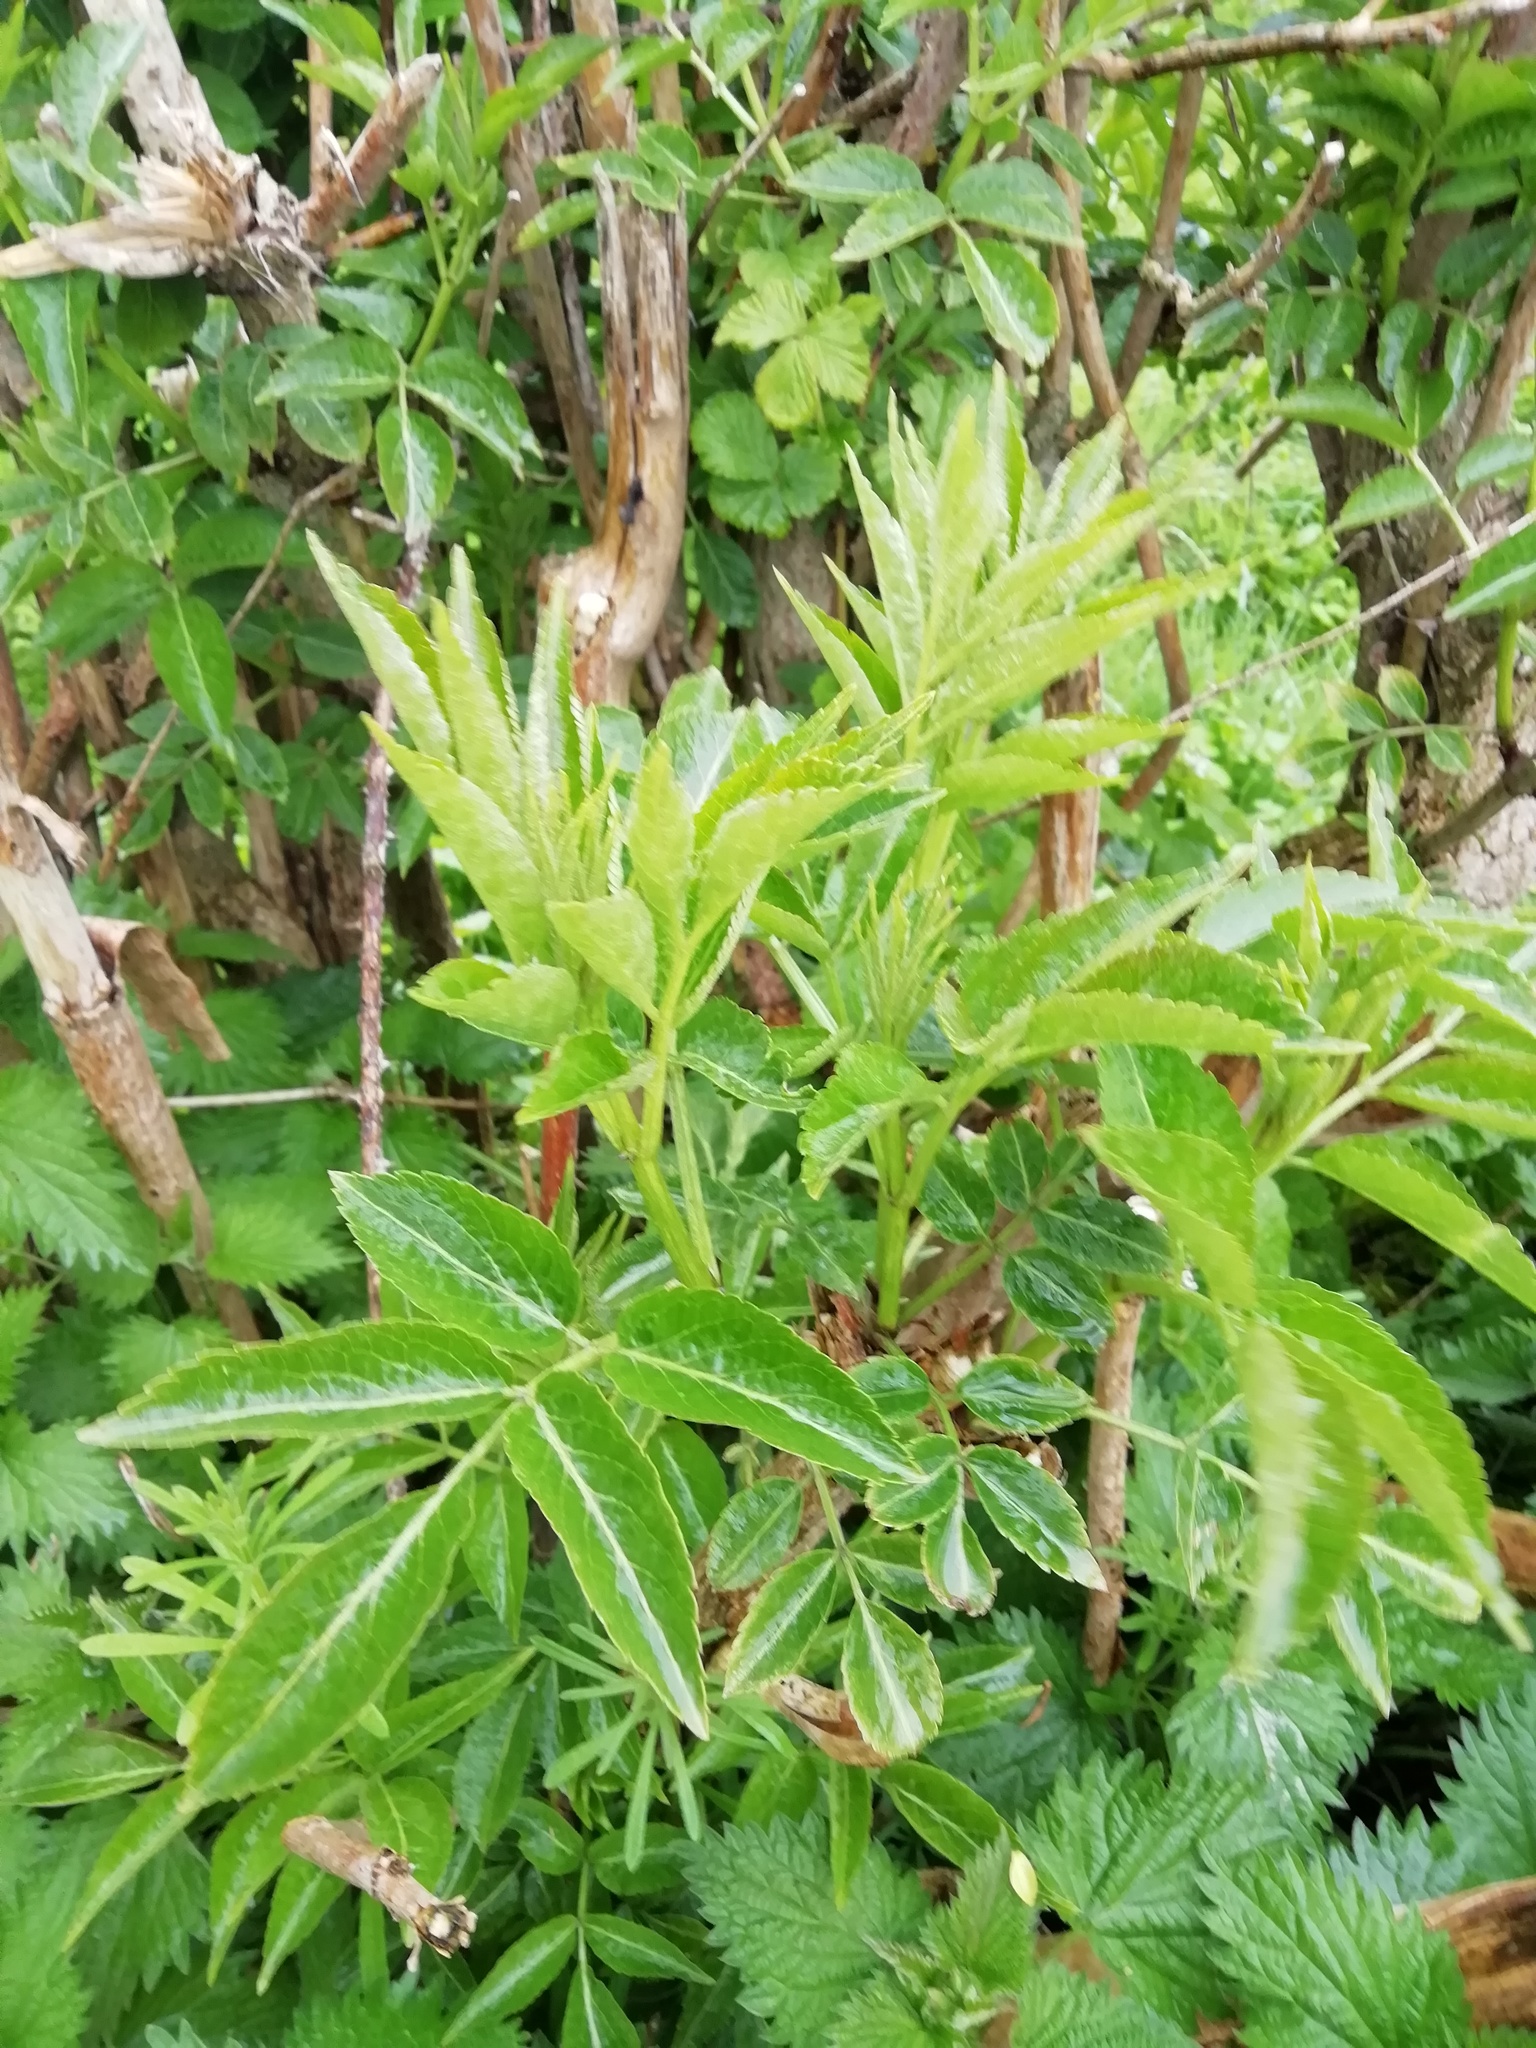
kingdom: Plantae
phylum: Tracheophyta
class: Magnoliopsida
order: Dipsacales
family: Viburnaceae
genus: Sambucus
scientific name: Sambucus nigra
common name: Elder
